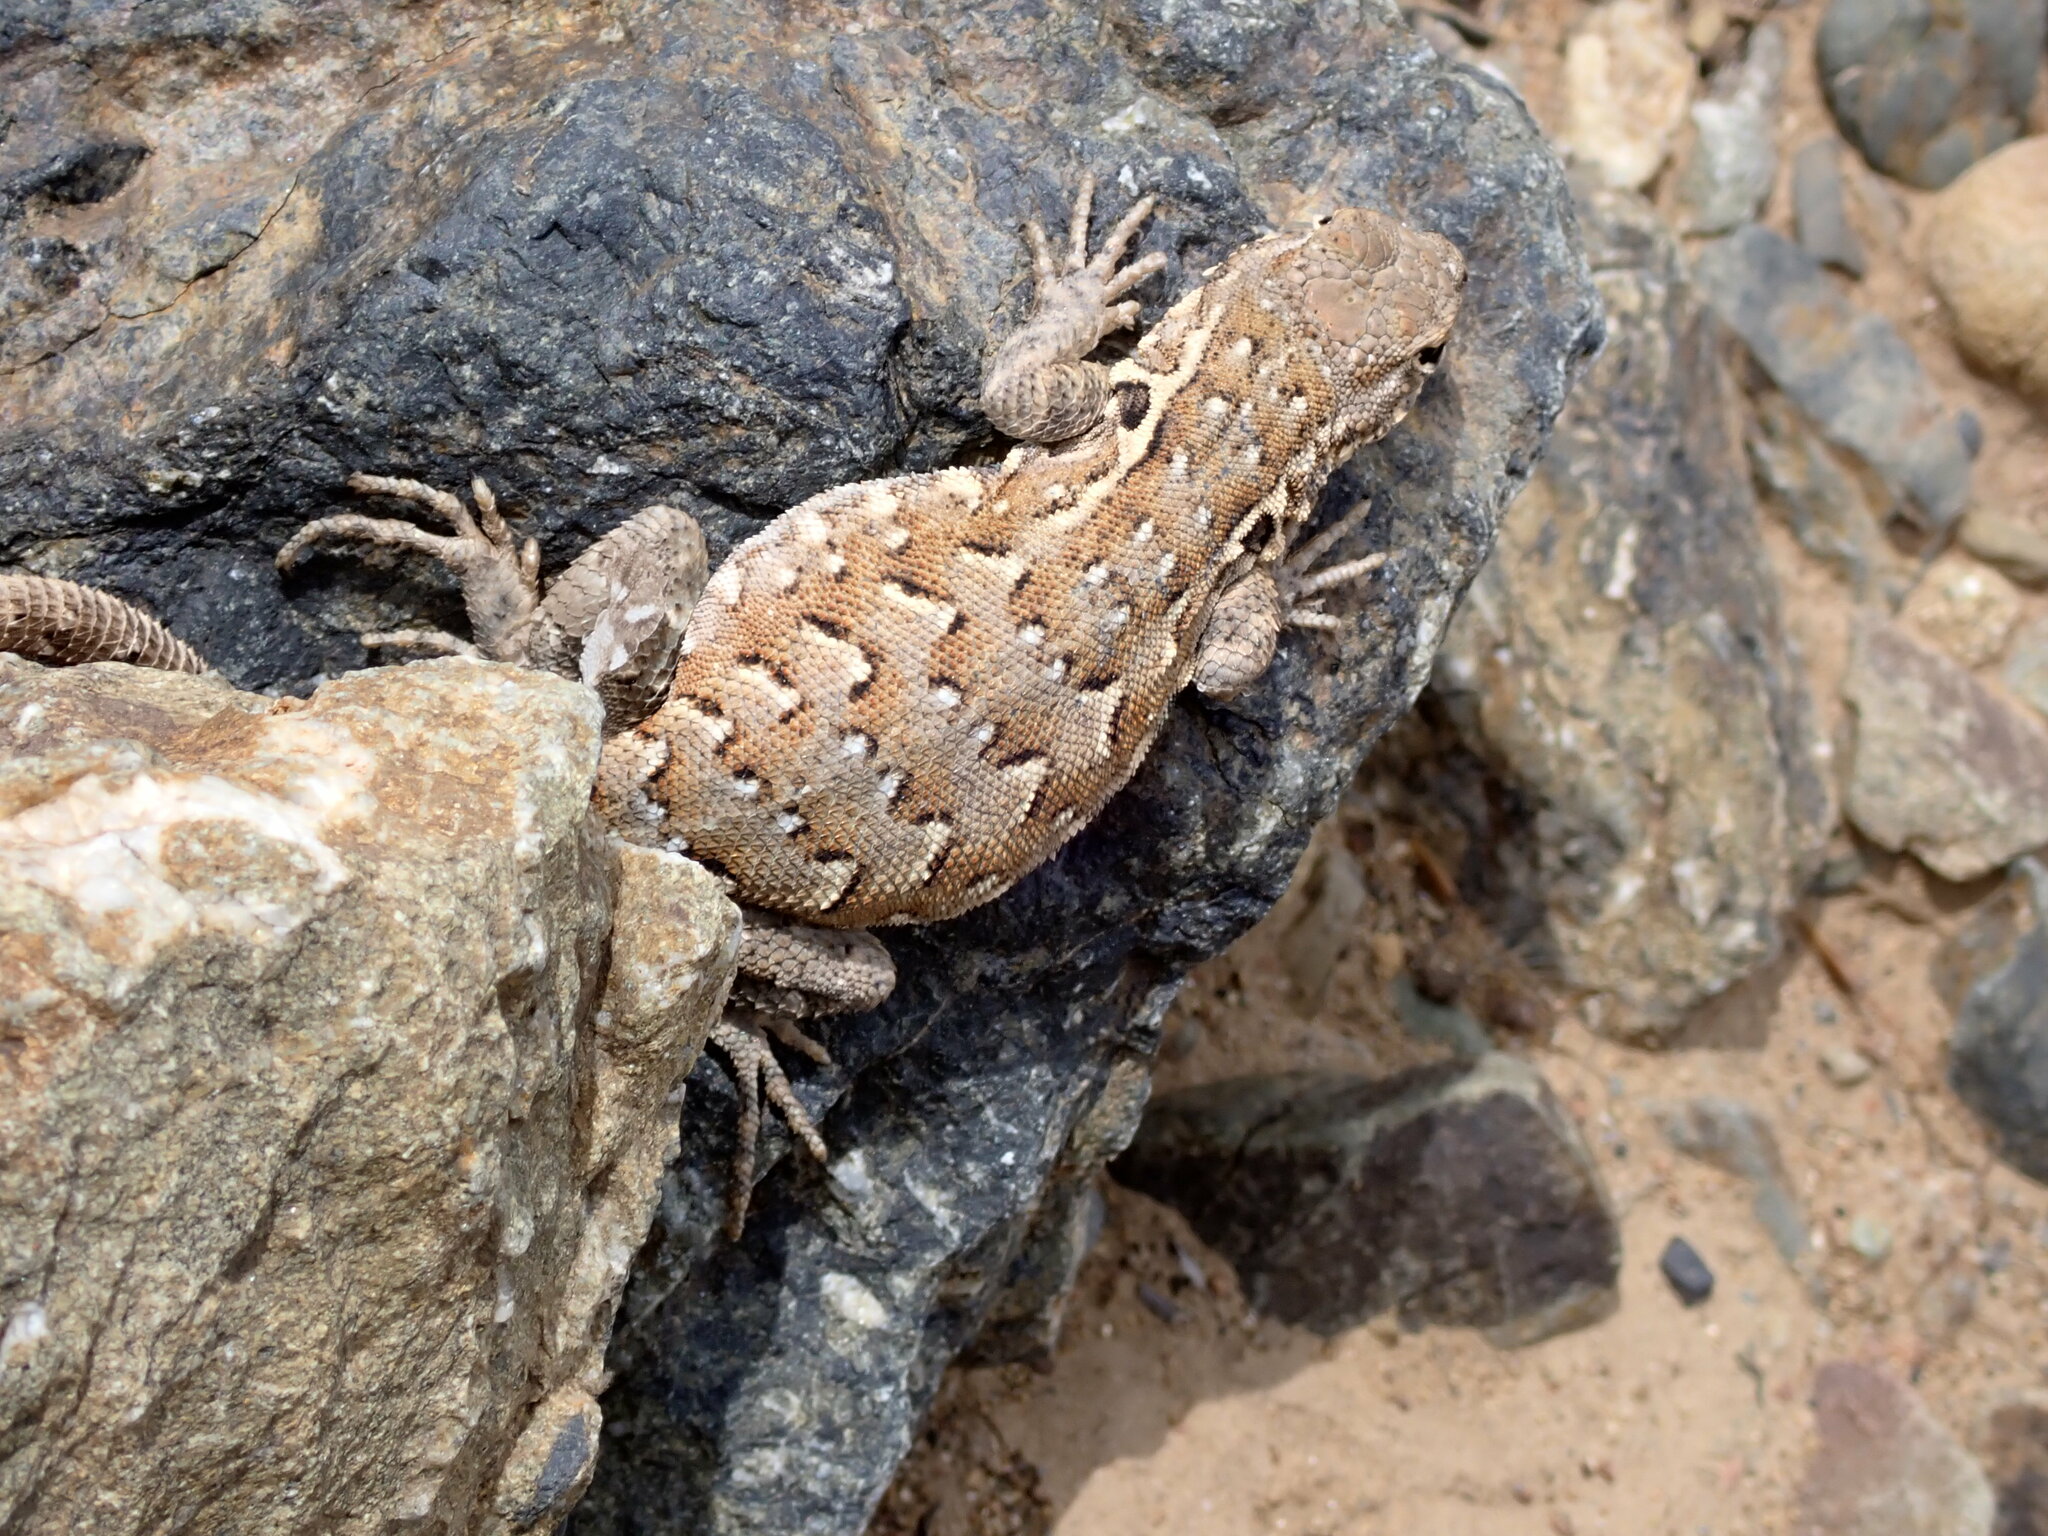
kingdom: Animalia
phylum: Chordata
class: Squamata
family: Phrynosomatidae
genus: Uta
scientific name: Uta stansburiana
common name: Side-blotched lizard
